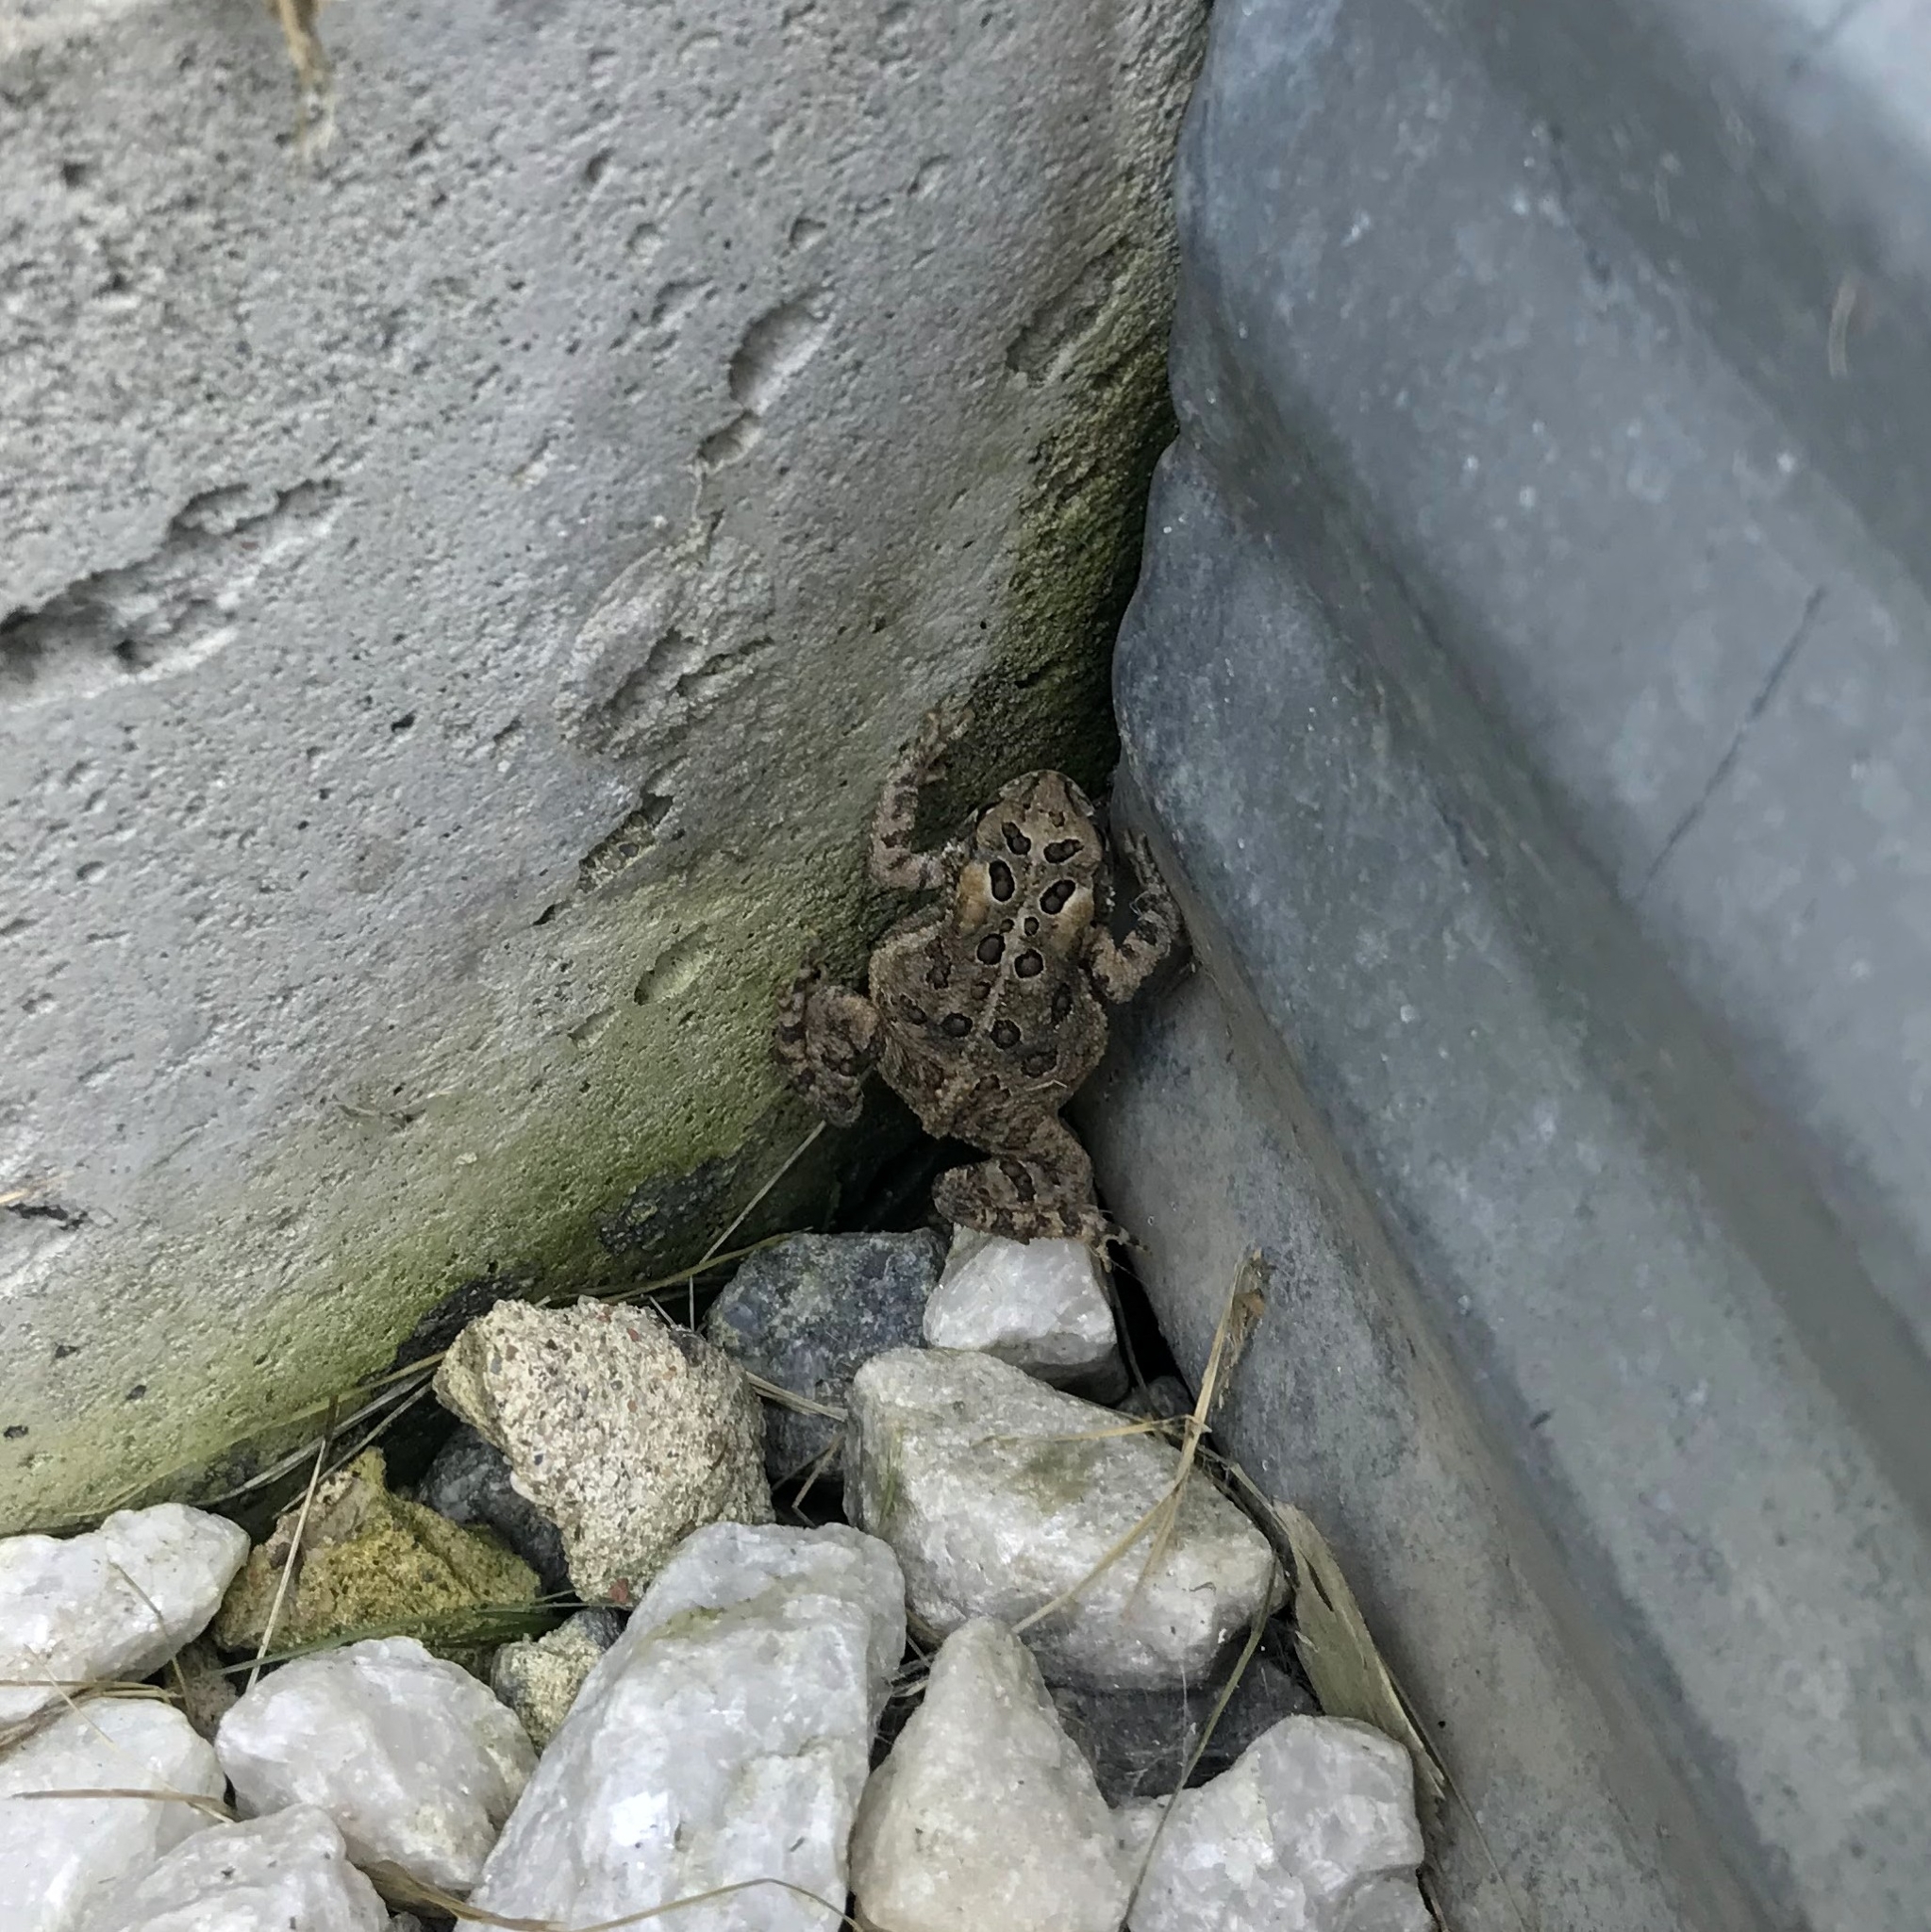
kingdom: Animalia
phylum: Chordata
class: Amphibia
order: Anura
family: Bufonidae
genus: Anaxyrus
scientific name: Anaxyrus americanus
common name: American toad
